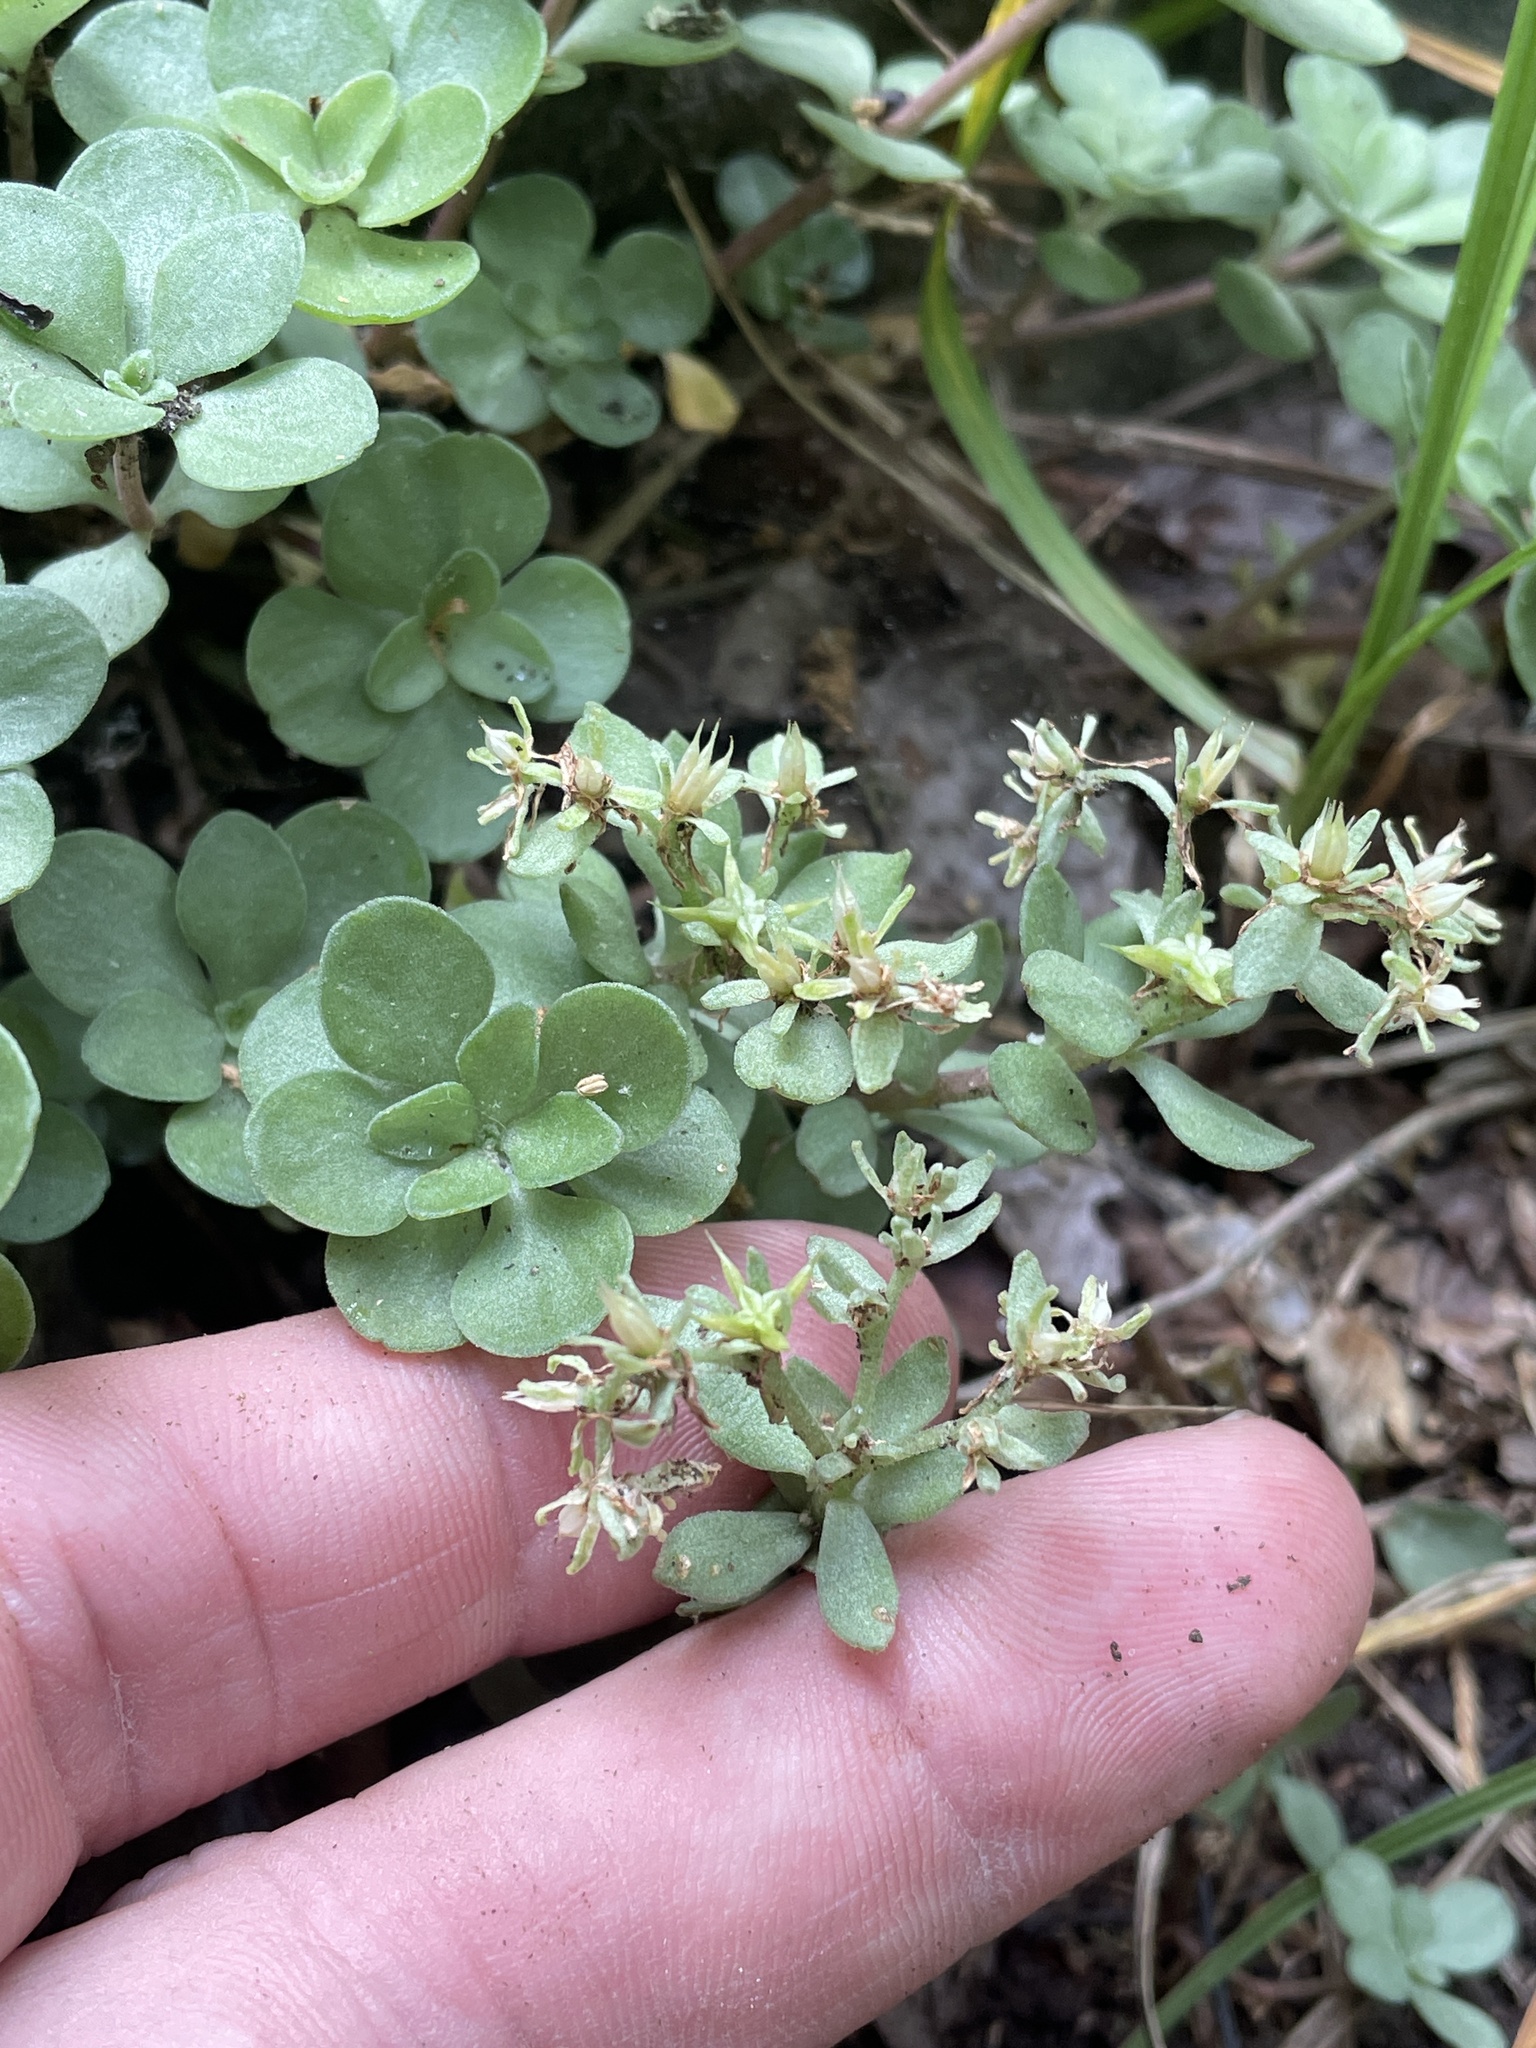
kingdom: Plantae
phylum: Tracheophyta
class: Magnoliopsida
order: Saxifragales
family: Crassulaceae
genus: Sedum
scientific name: Sedum ternatum
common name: Wild stonecrop
